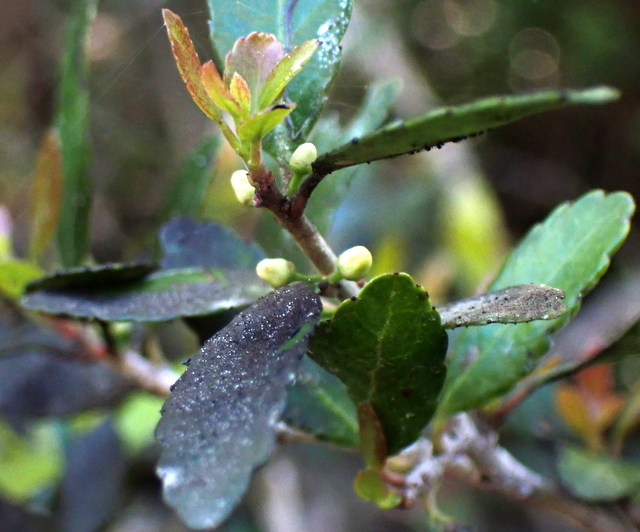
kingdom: Plantae
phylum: Tracheophyta
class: Magnoliopsida
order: Aquifoliales
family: Aquifoliaceae
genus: Ilex
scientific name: Ilex vomitoria
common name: Yaupon holly
